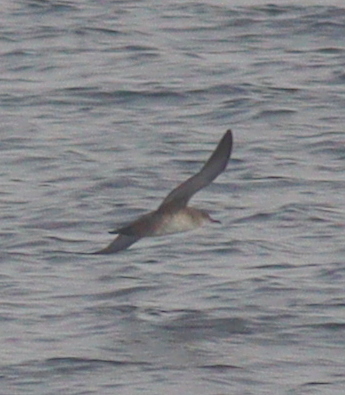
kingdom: Animalia
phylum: Chordata
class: Aves
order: Procellariiformes
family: Procellariidae
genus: Puffinus
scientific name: Puffinus mauretanicus
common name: Balearic shearwater
